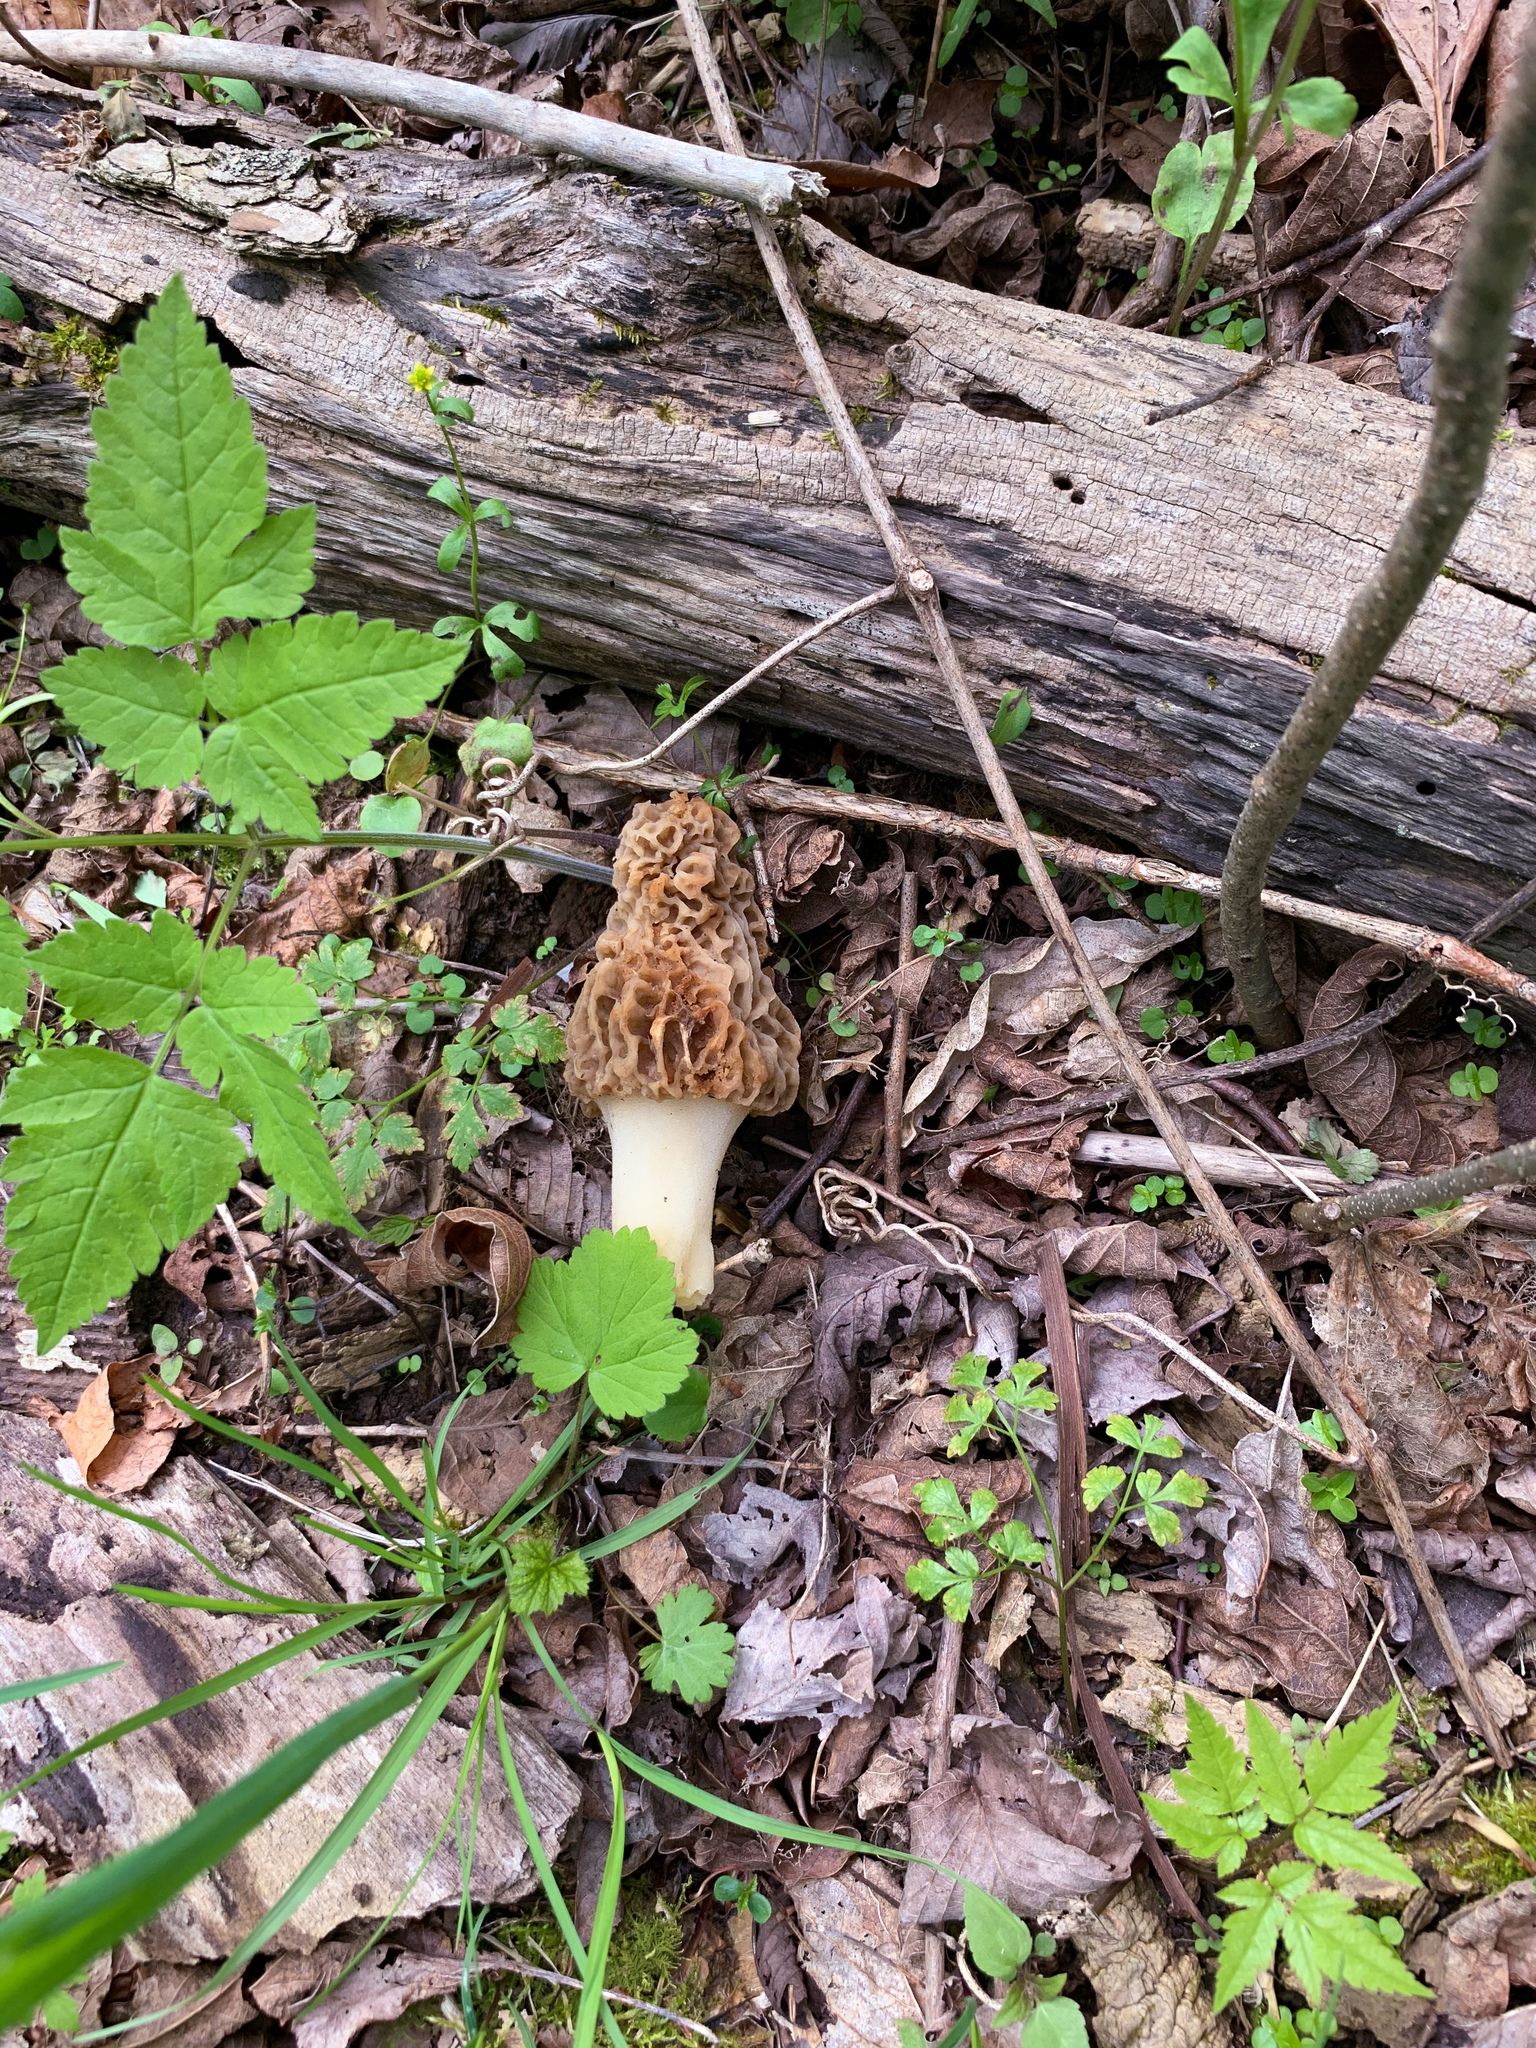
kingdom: Fungi
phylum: Ascomycota
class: Pezizomycetes
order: Pezizales
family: Morchellaceae
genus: Morchella
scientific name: Morchella americana
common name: White morel
